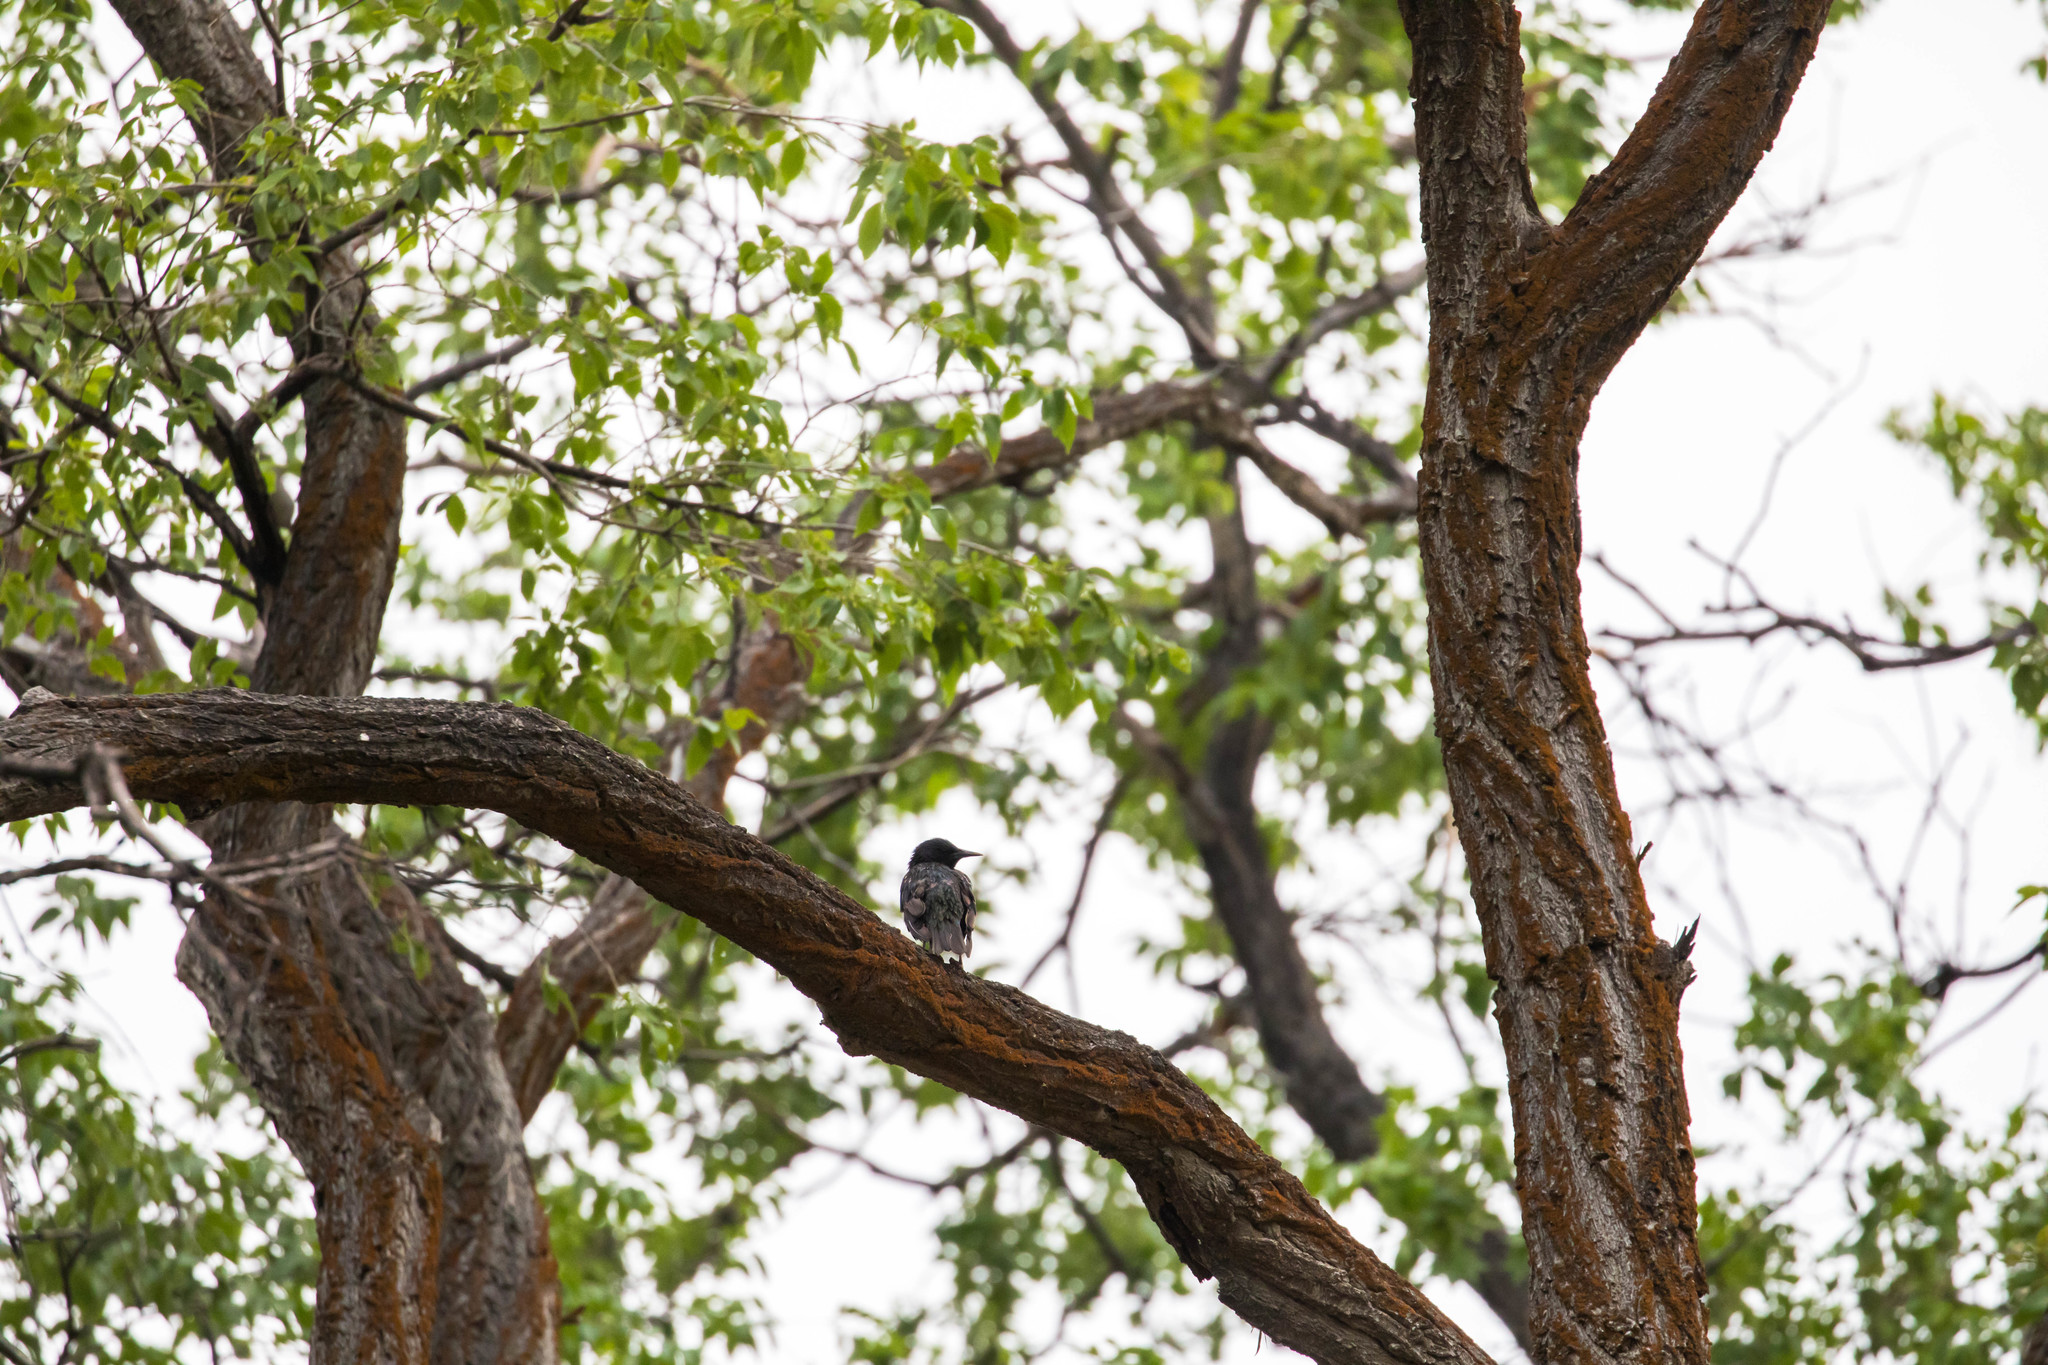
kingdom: Animalia
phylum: Chordata
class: Aves
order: Passeriformes
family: Sturnidae
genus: Sturnus
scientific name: Sturnus vulgaris
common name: Common starling
